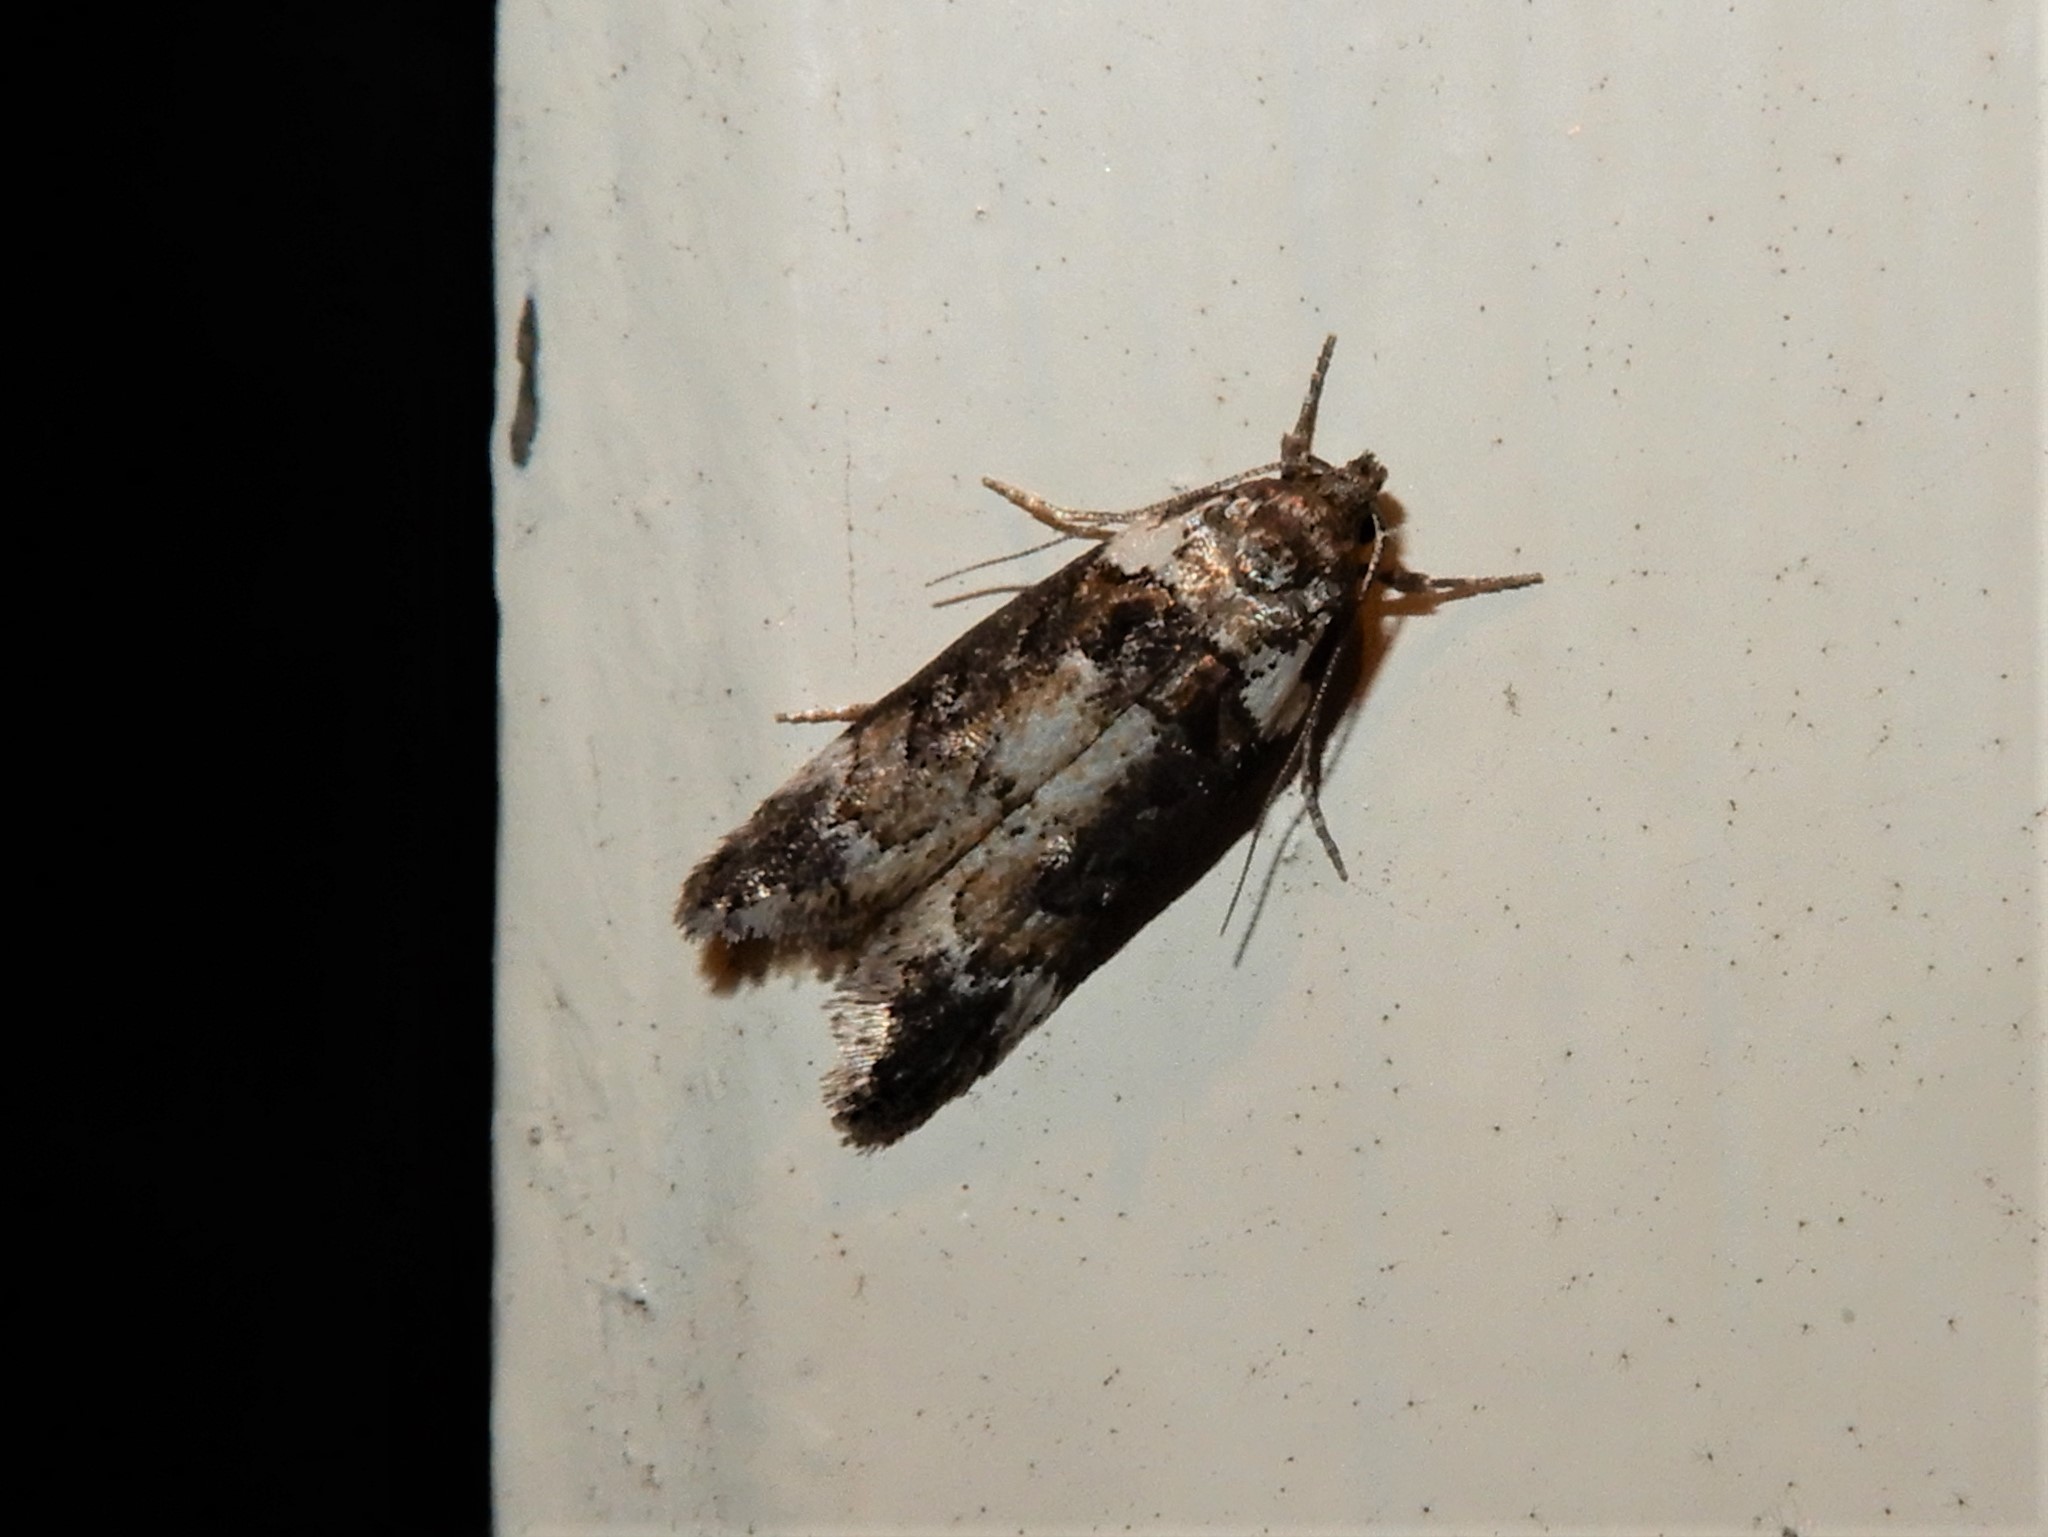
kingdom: Animalia
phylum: Arthropoda
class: Insecta
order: Lepidoptera
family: Oecophoridae
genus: Trachypepla
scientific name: Trachypepla conspicuella
